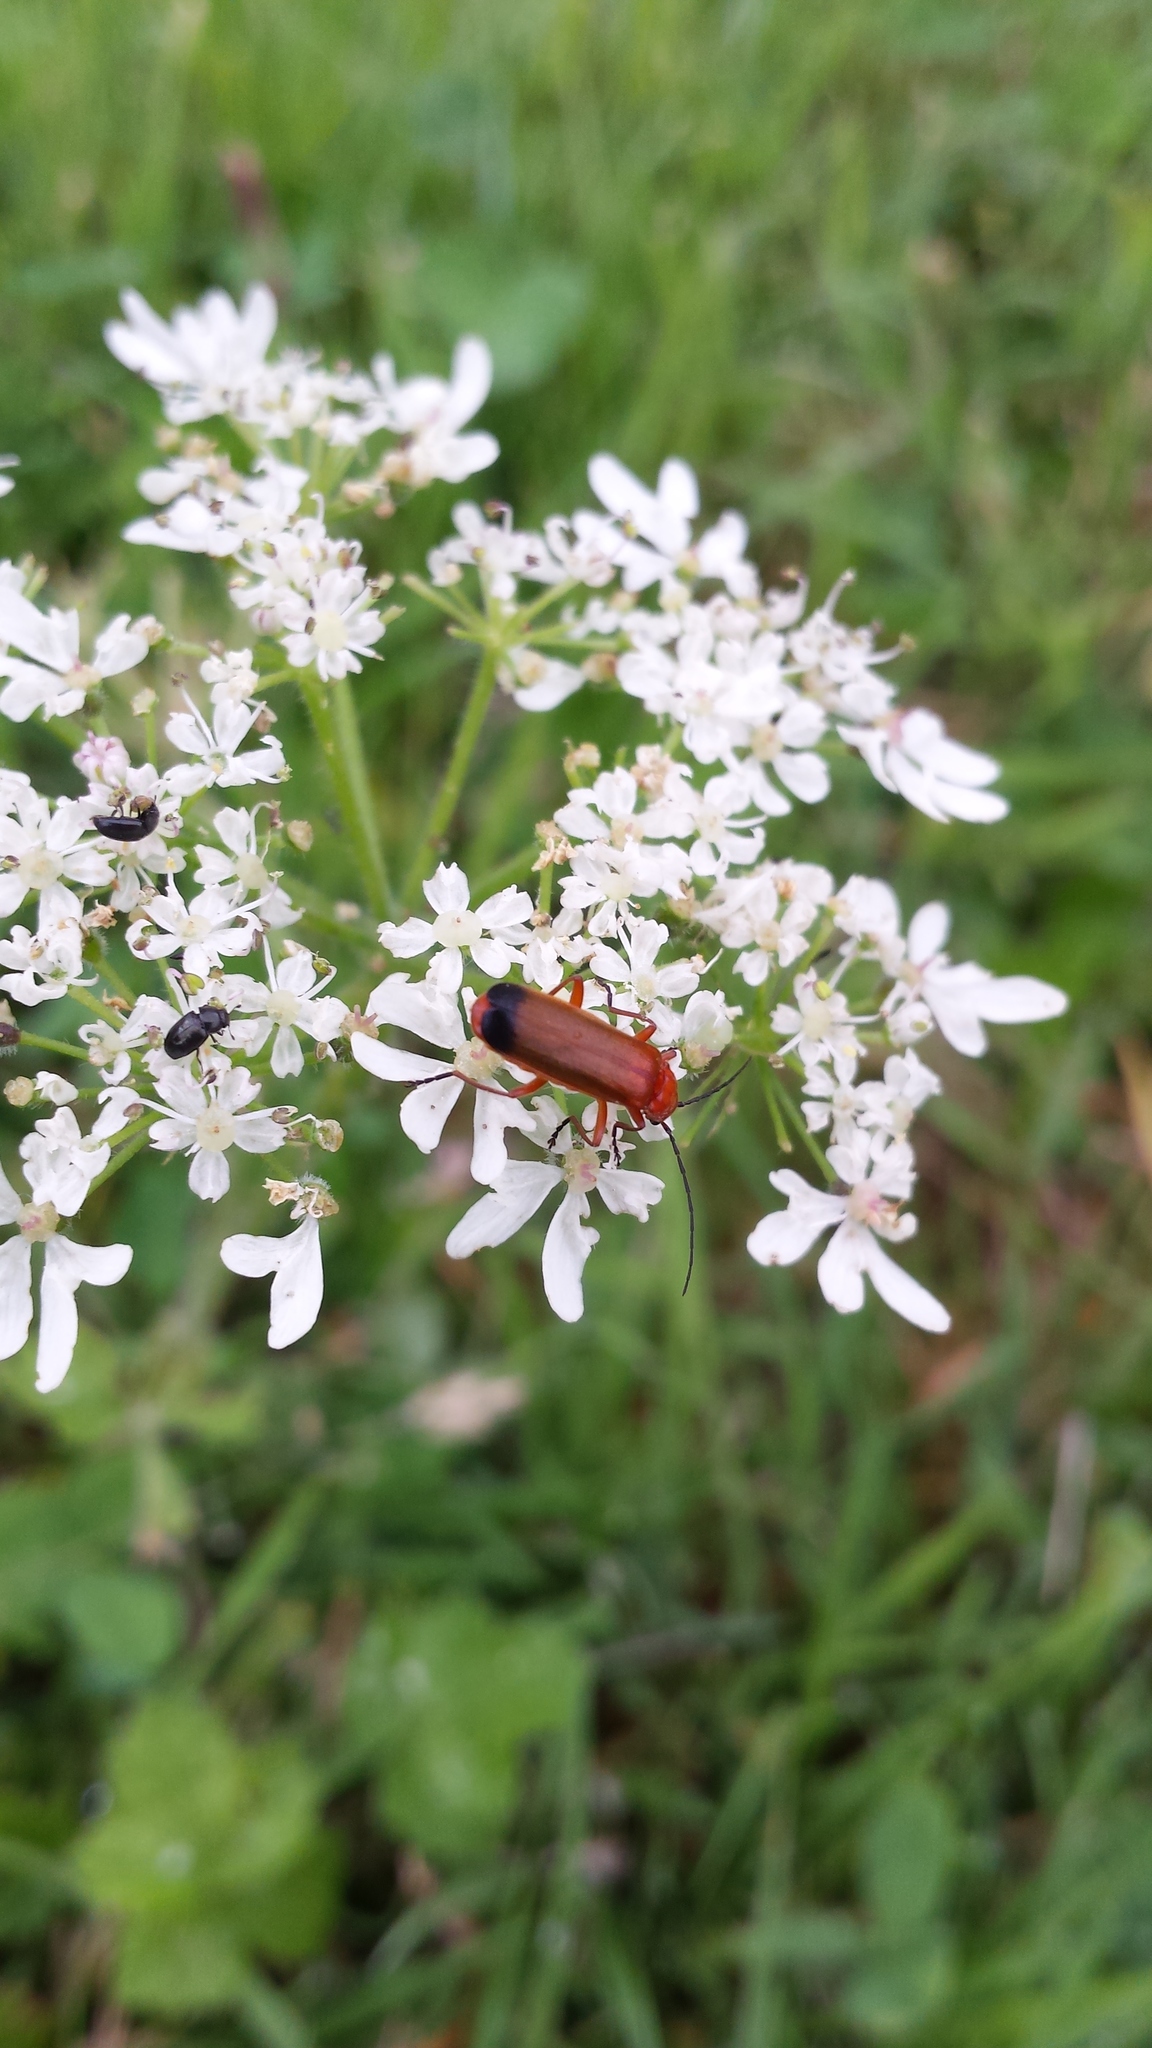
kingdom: Animalia
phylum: Arthropoda
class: Insecta
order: Coleoptera
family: Cantharidae
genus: Rhagonycha
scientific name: Rhagonycha fulva
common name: Common red soldier beetle
